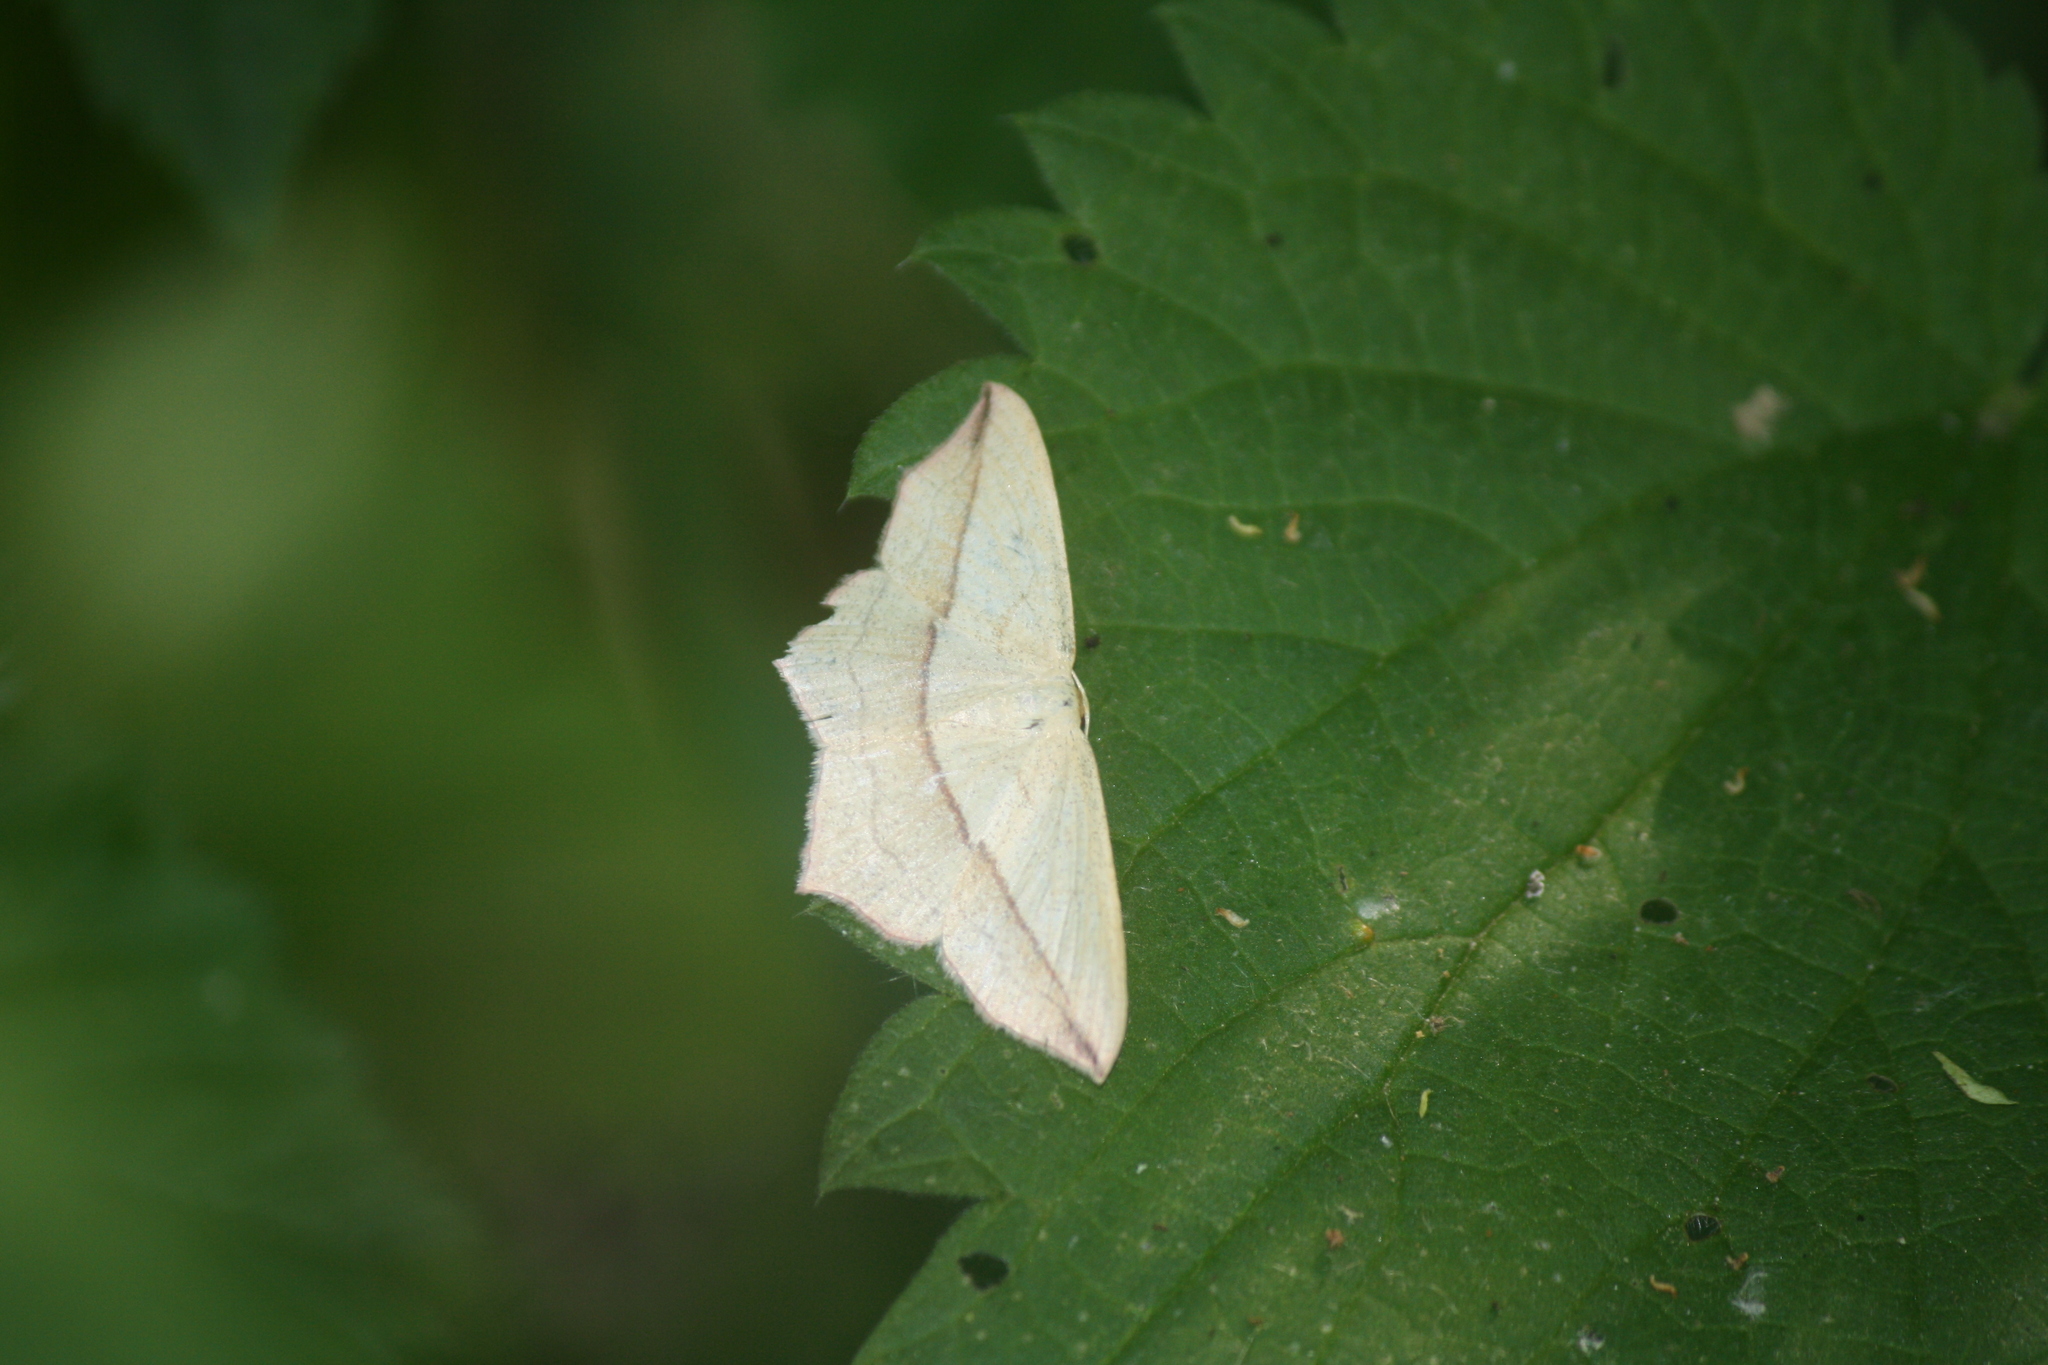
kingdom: Animalia
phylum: Arthropoda
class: Insecta
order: Lepidoptera
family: Geometridae
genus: Timandra
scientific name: Timandra comae
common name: Blood-vein
